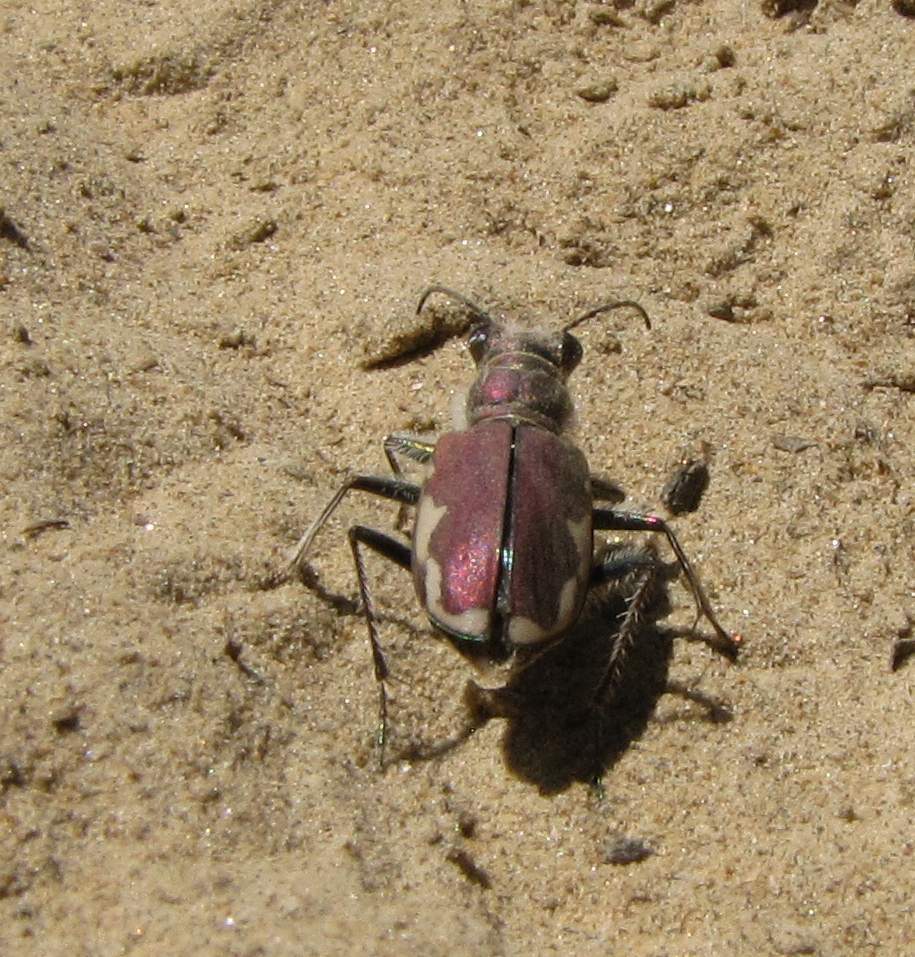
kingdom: Animalia
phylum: Arthropoda
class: Insecta
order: Coleoptera
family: Carabidae
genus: Cicindela
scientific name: Cicindela scutellaris
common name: Festive tiger beetle
